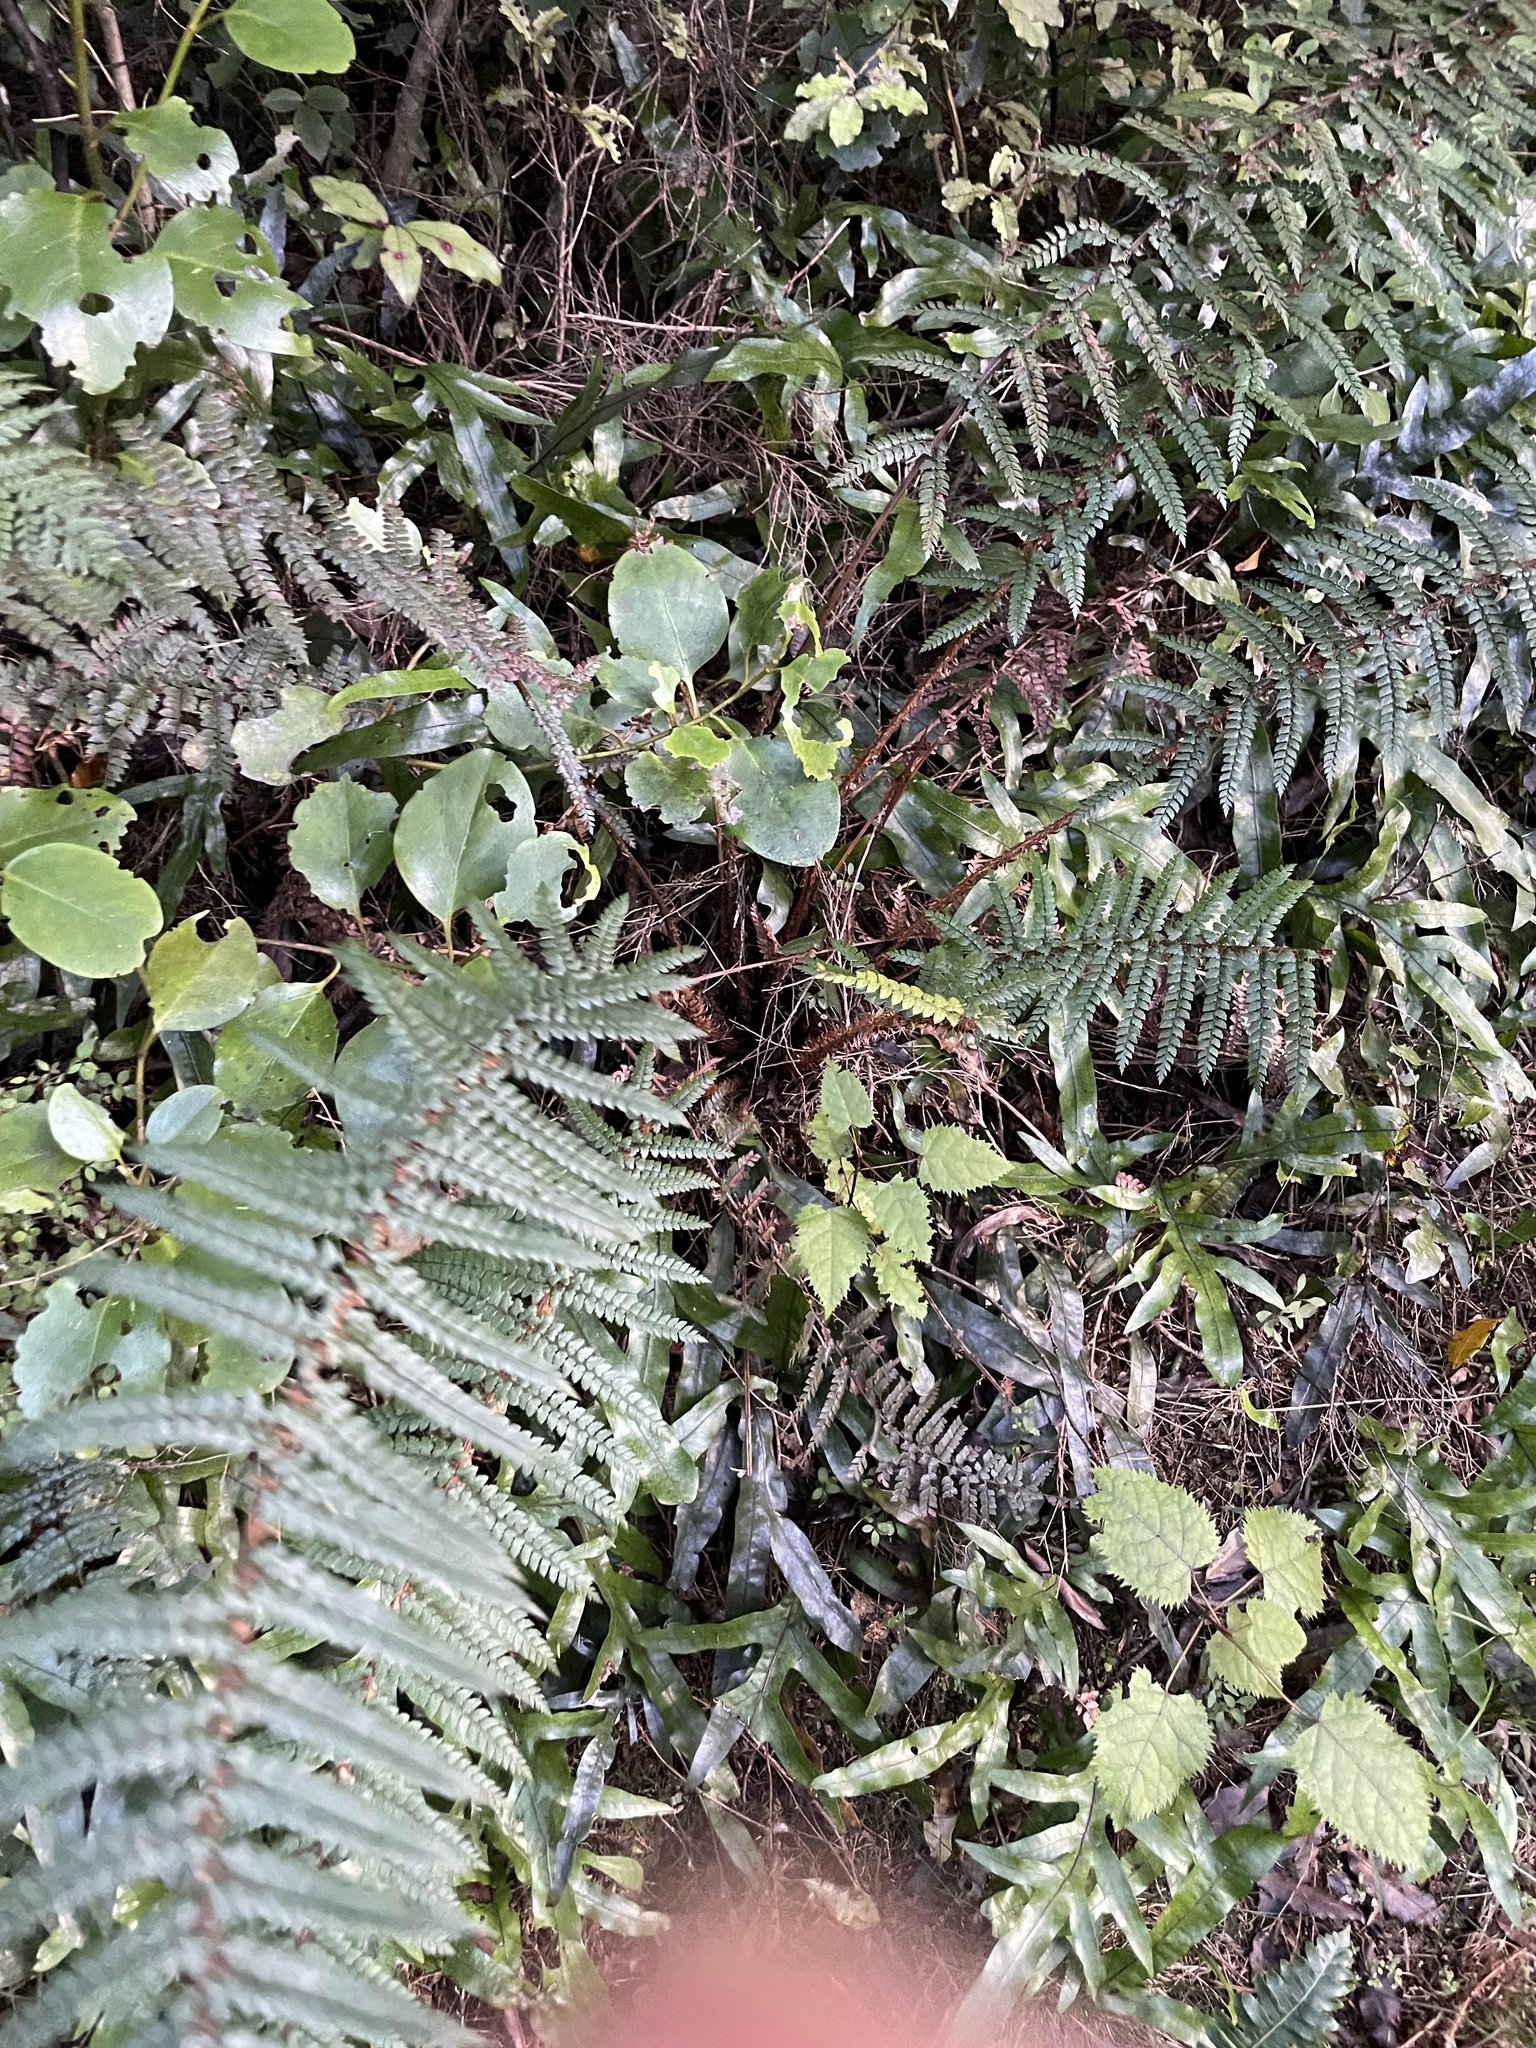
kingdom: Plantae
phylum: Tracheophyta
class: Polypodiopsida
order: Polypodiales
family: Dryopteridaceae
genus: Polystichum
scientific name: Polystichum vestitum
